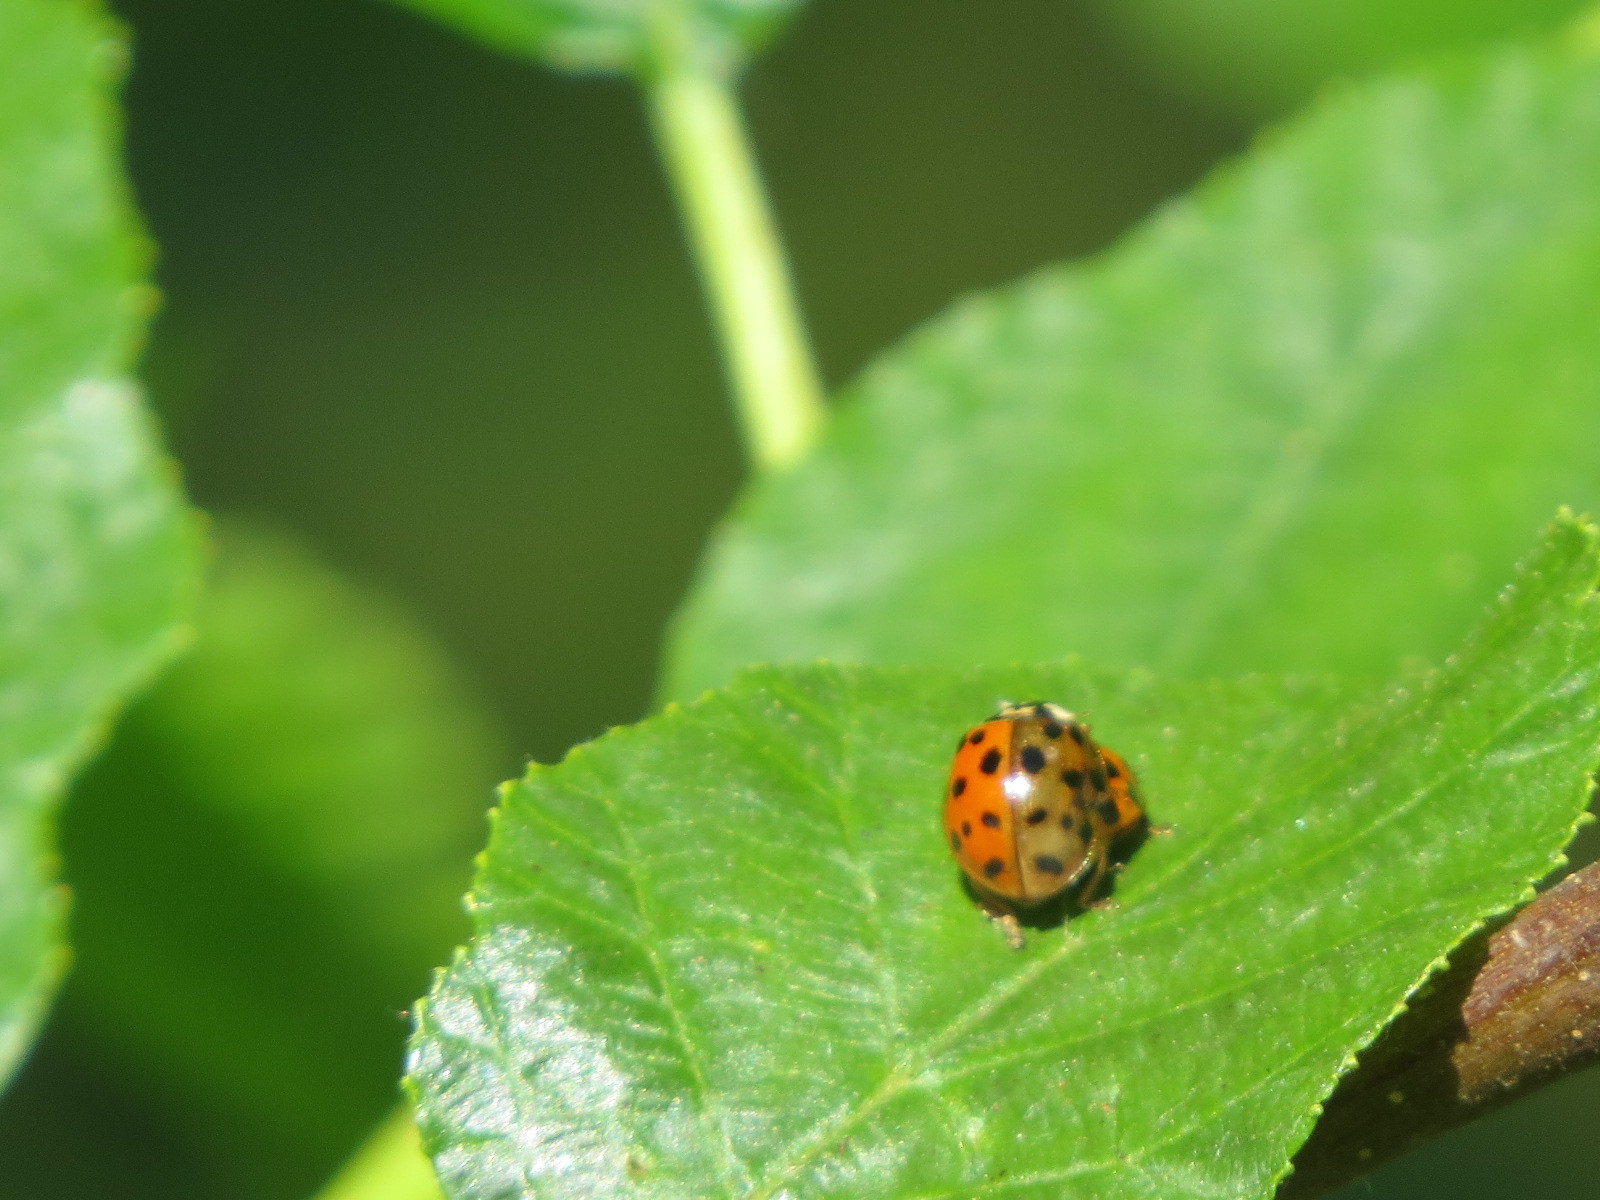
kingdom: Animalia
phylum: Arthropoda
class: Insecta
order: Coleoptera
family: Coccinellidae
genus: Harmonia
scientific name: Harmonia axyridis
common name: Harlequin ladybird
